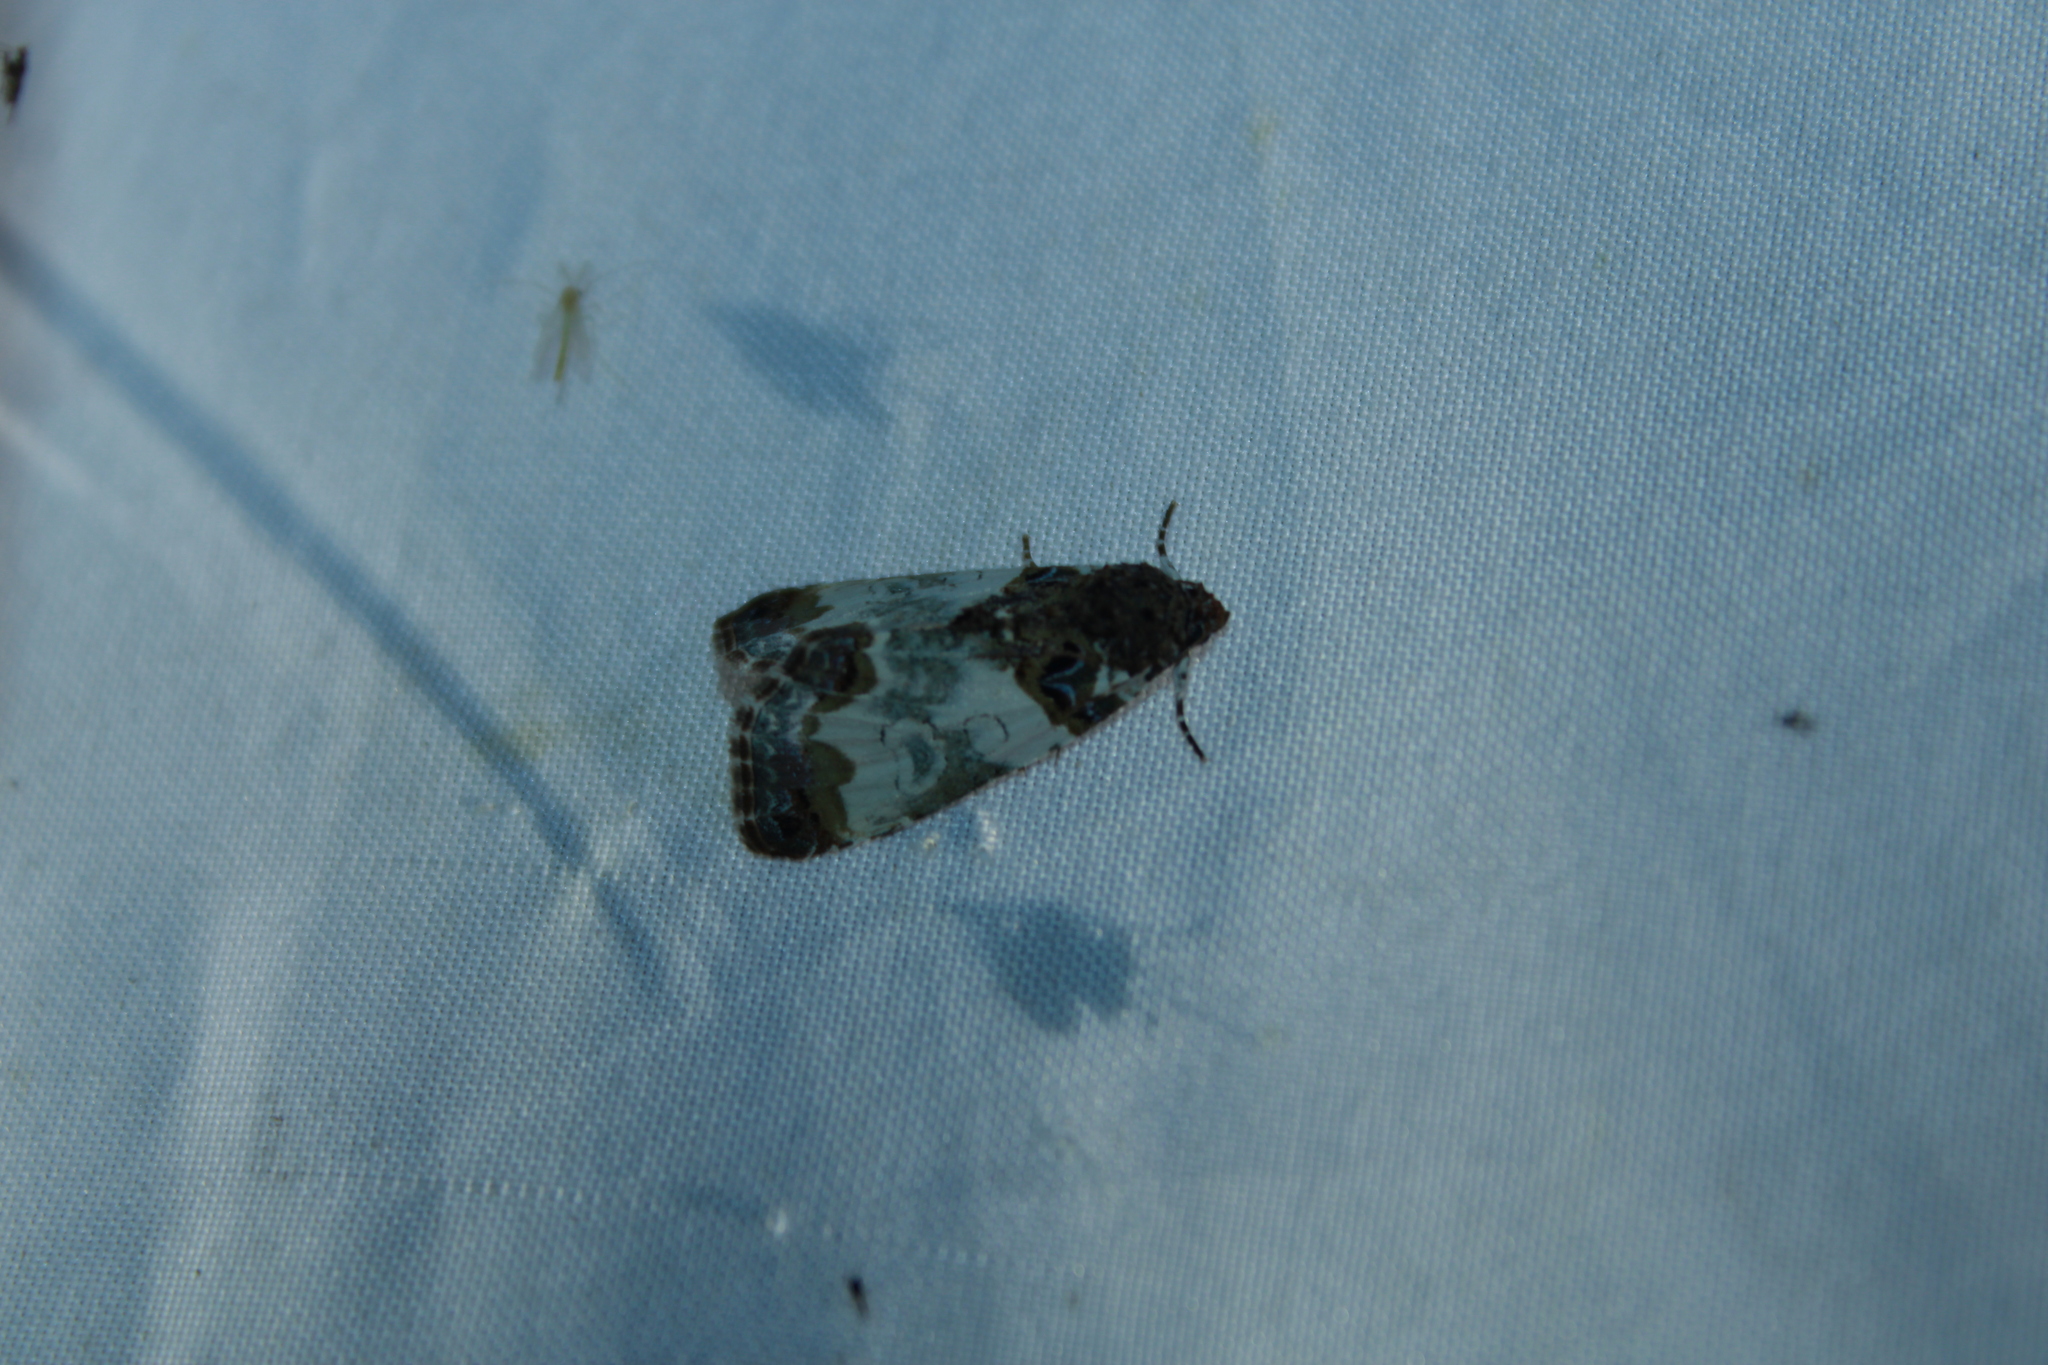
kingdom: Animalia
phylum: Arthropoda
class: Insecta
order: Lepidoptera
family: Noctuidae
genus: Cerma
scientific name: Cerma cerintha
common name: Tufted bird-dropping moth
